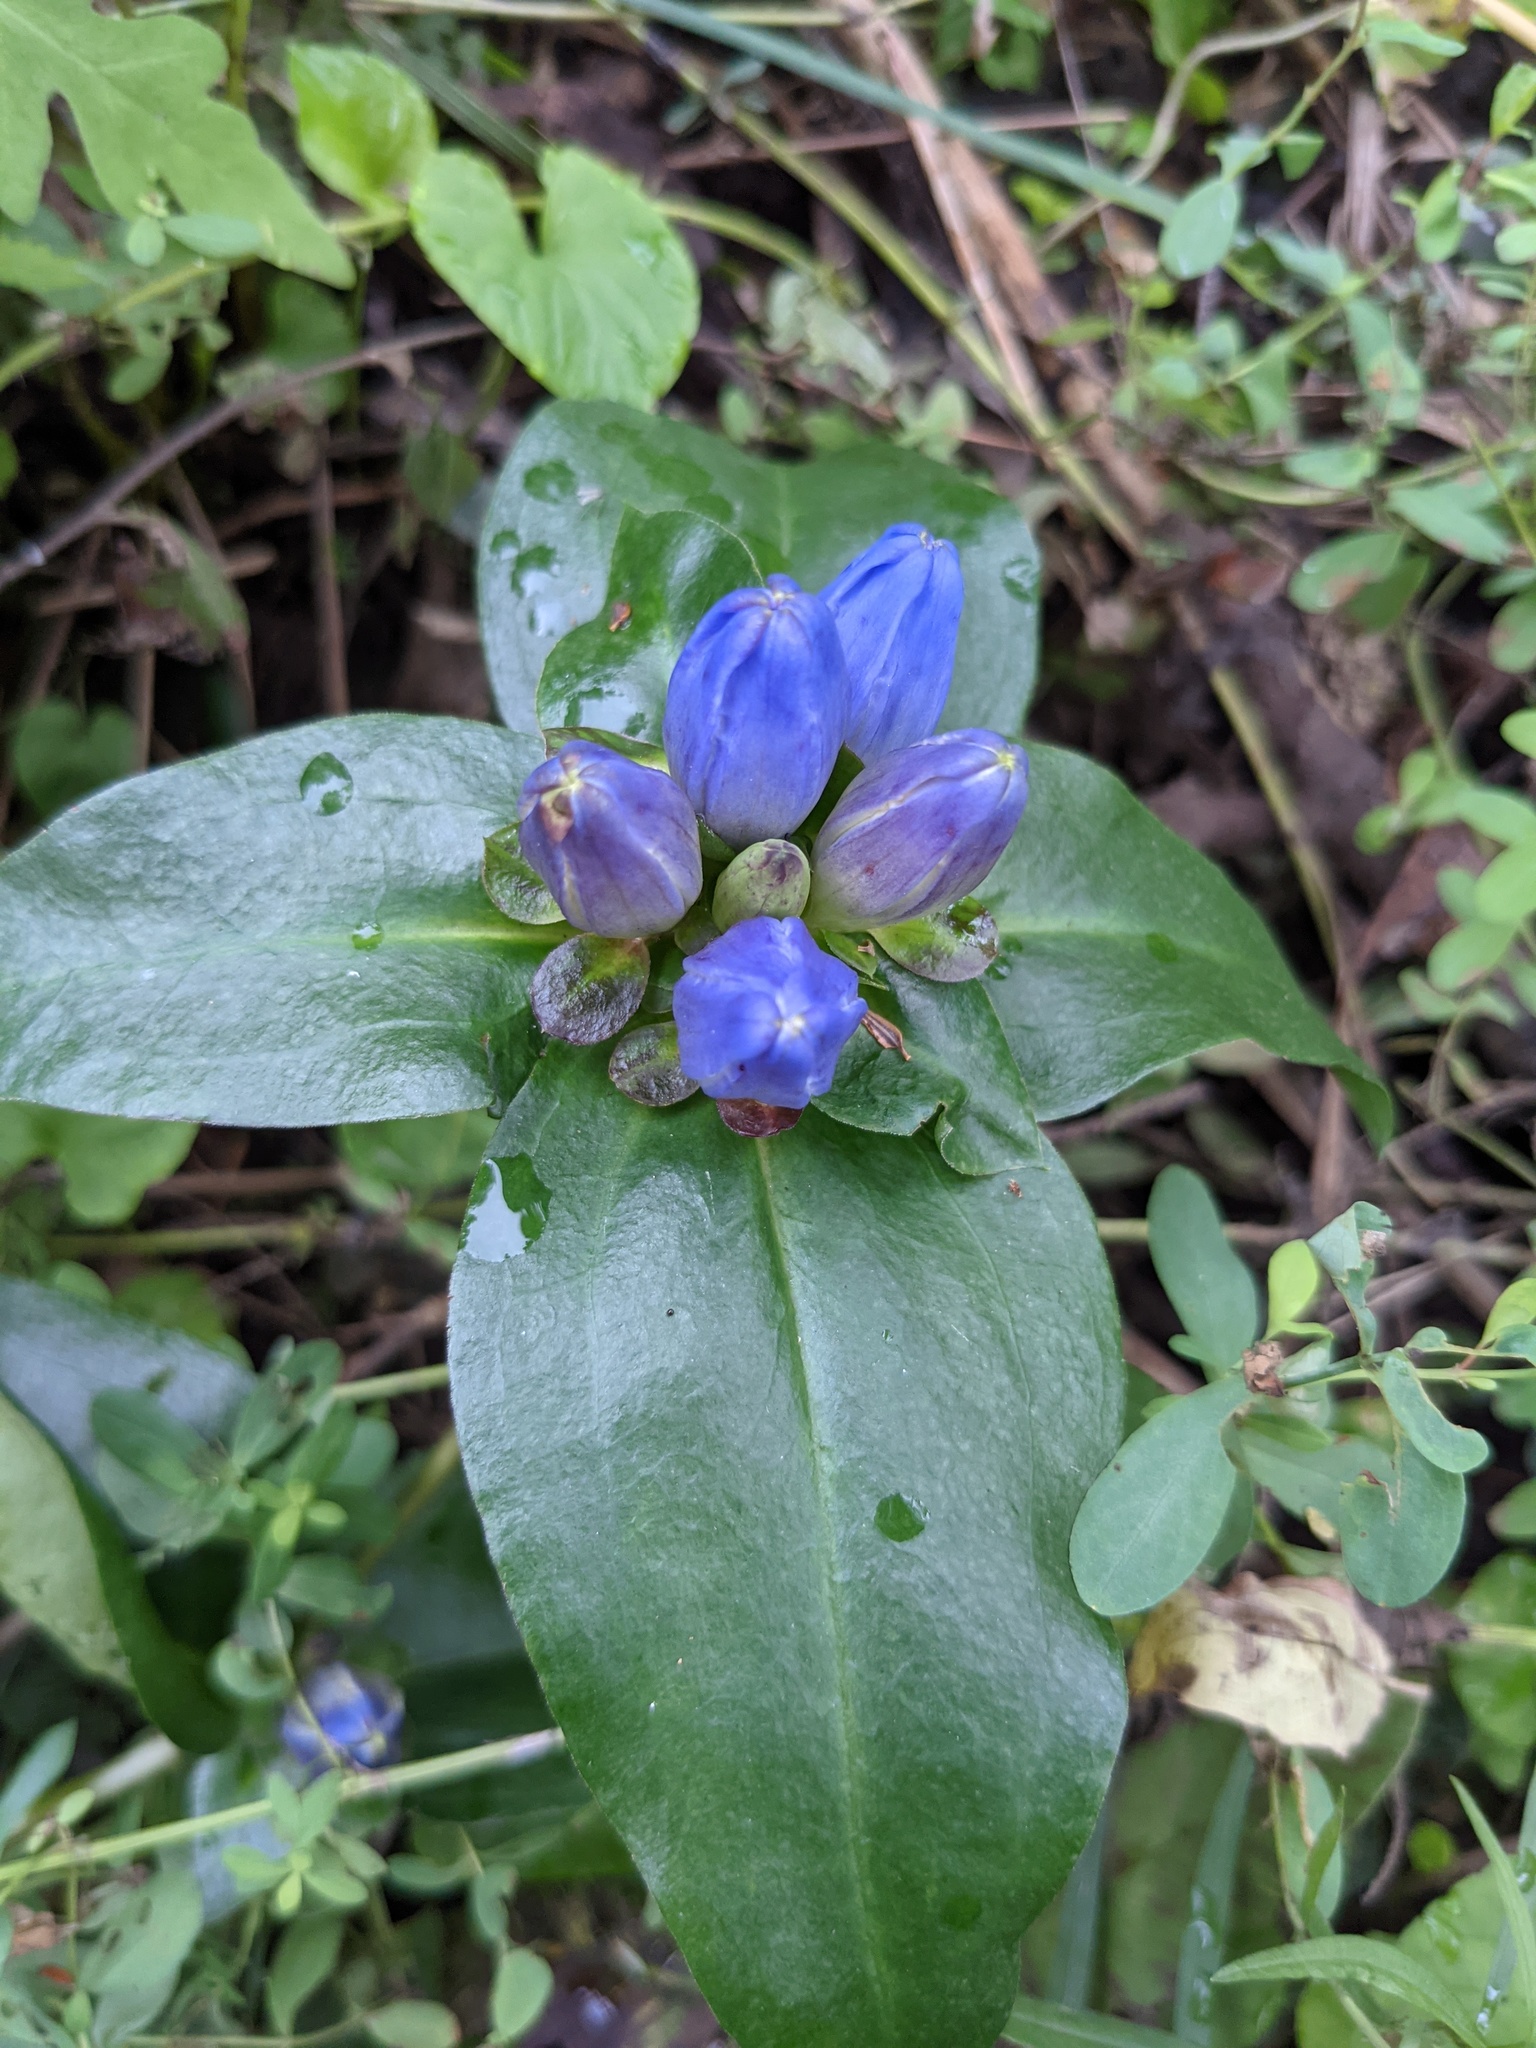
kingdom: Plantae
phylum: Tracheophyta
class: Magnoliopsida
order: Gentianales
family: Gentianaceae
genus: Gentiana
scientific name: Gentiana clausa
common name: Blind gentian
